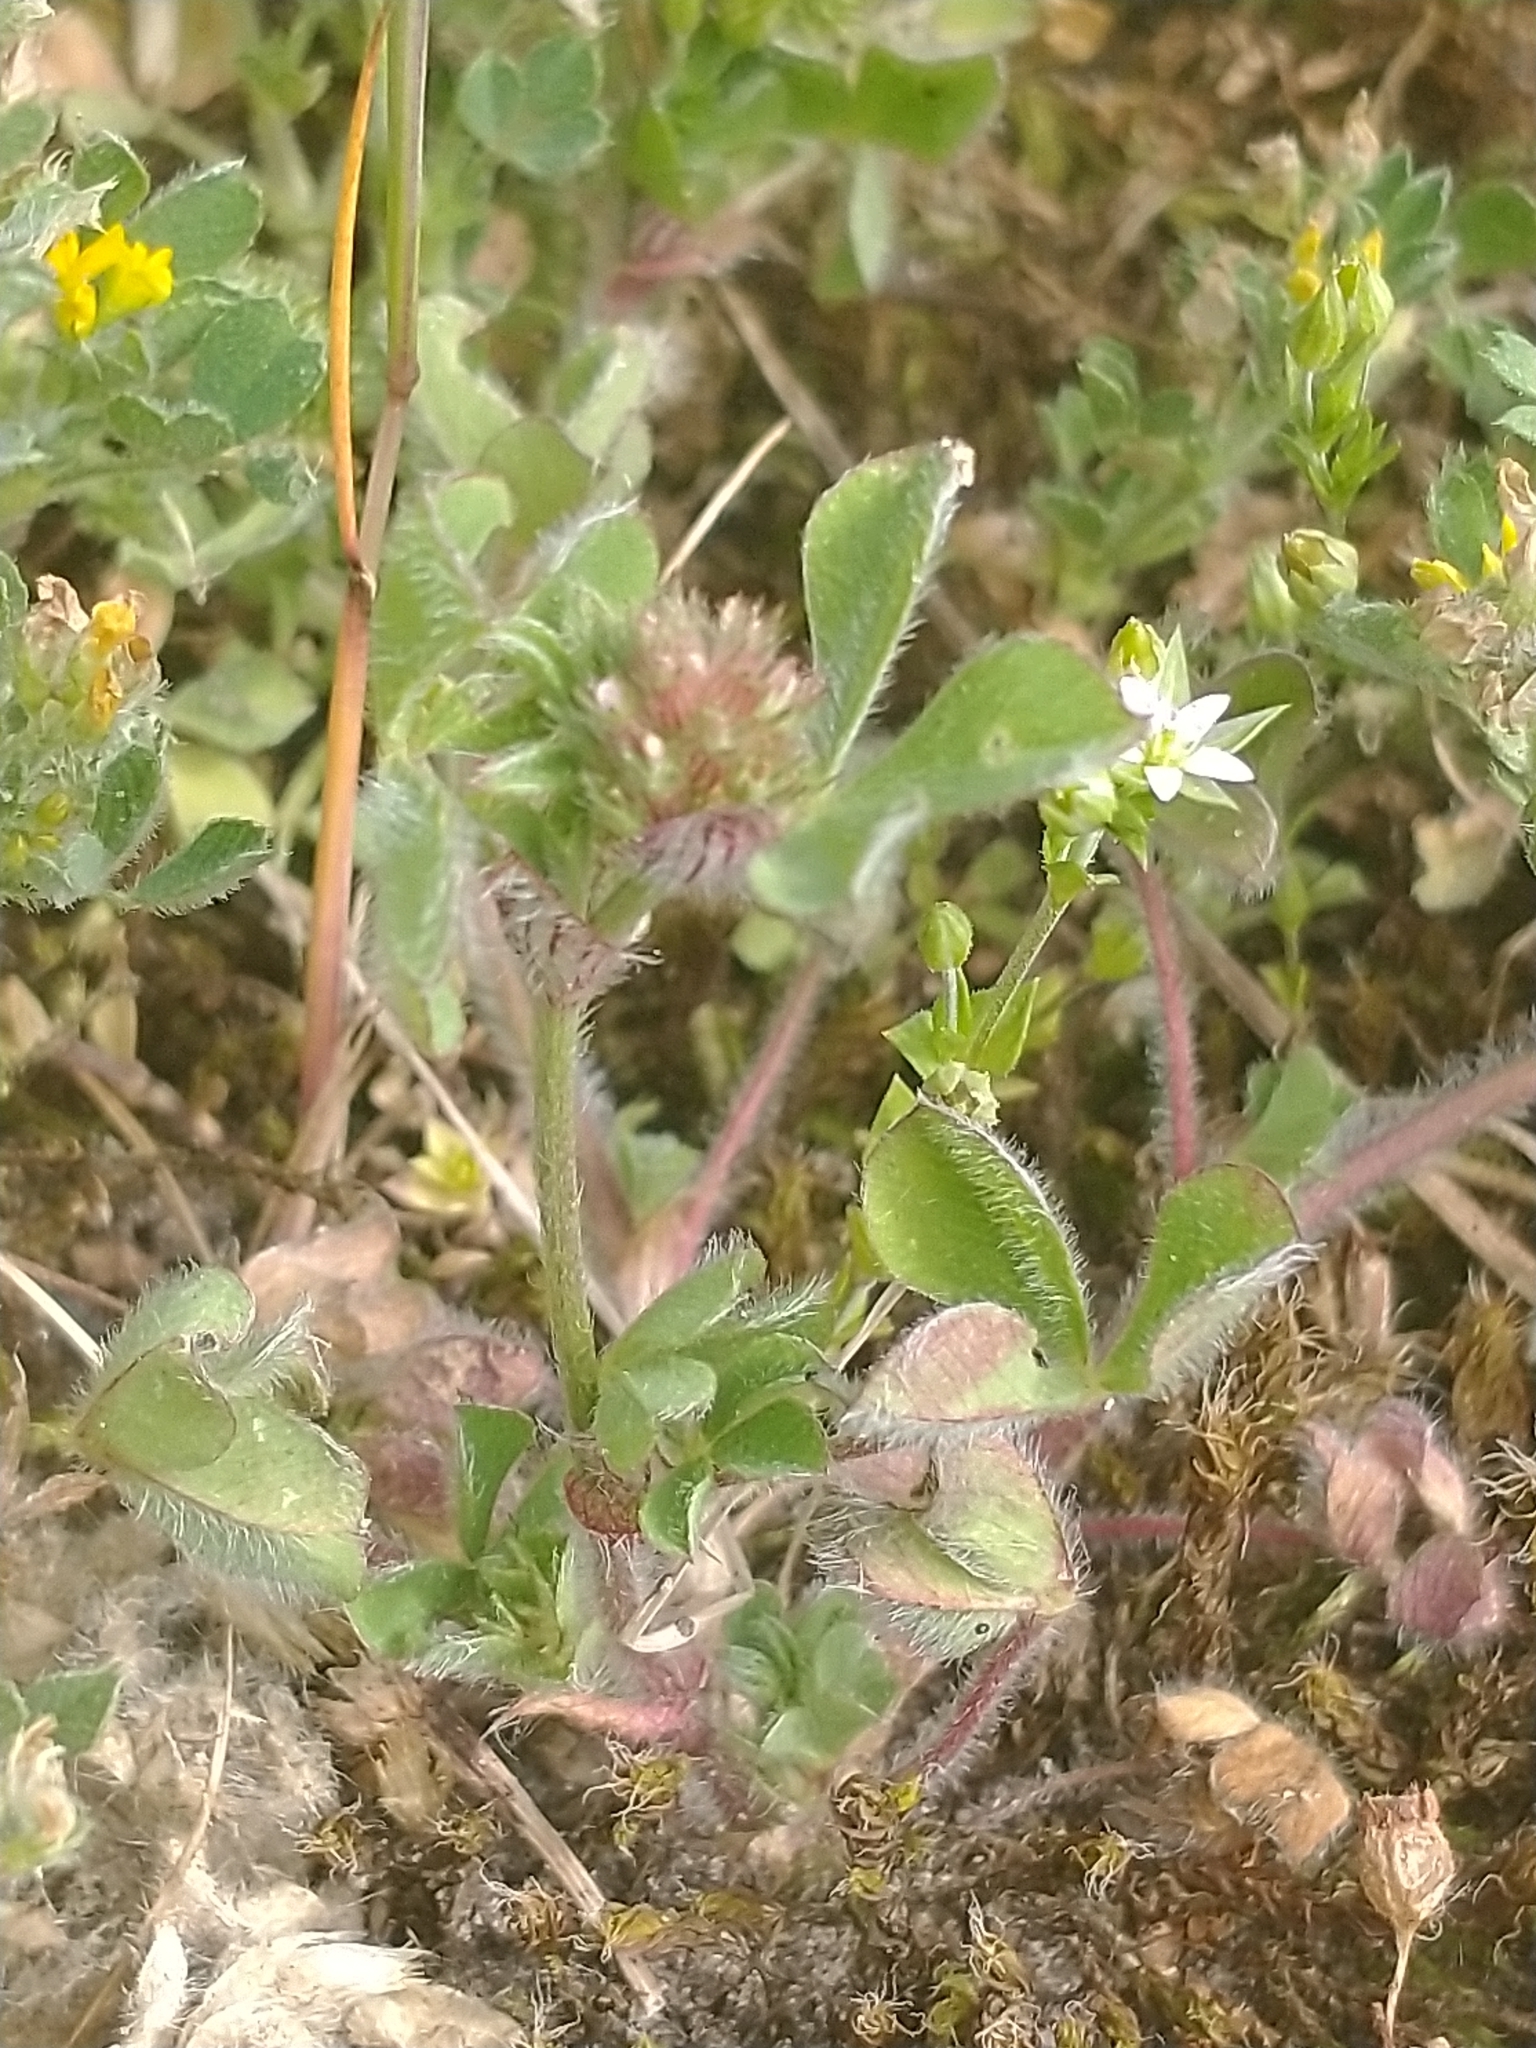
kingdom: Plantae
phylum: Tracheophyta
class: Magnoliopsida
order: Fabales
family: Fabaceae
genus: Trifolium
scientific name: Trifolium striatum
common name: Knotted clover
